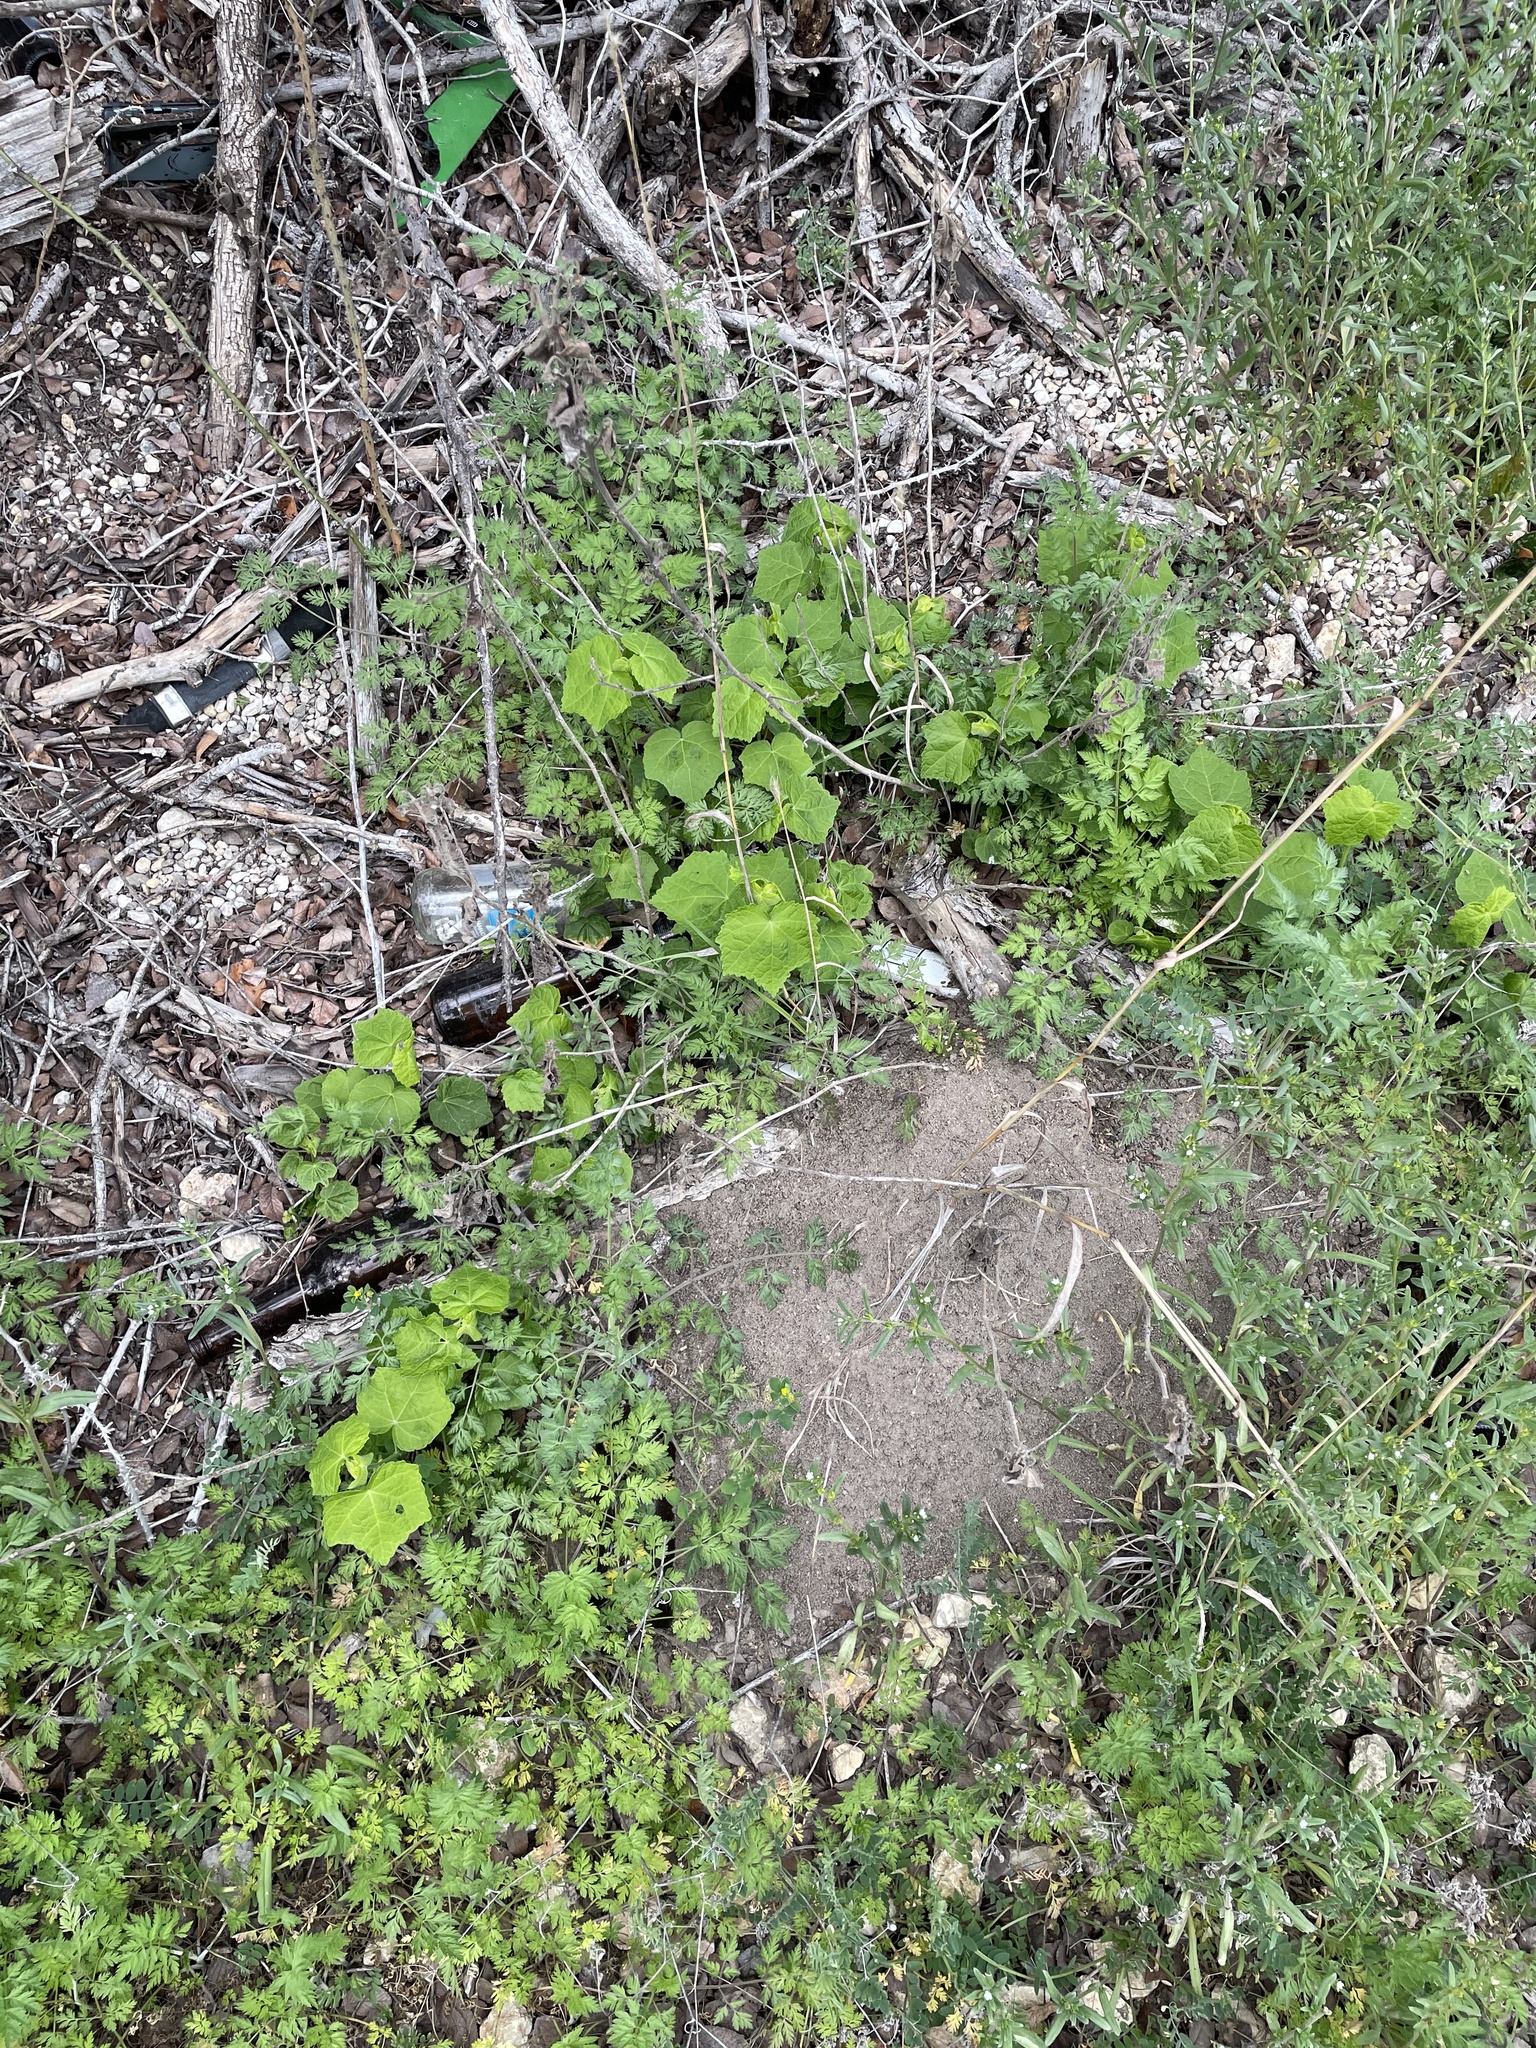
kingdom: Plantae
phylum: Tracheophyta
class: Magnoliopsida
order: Malvales
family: Malvaceae
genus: Malvaviscus
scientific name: Malvaviscus arboreus
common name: Wax mallow
